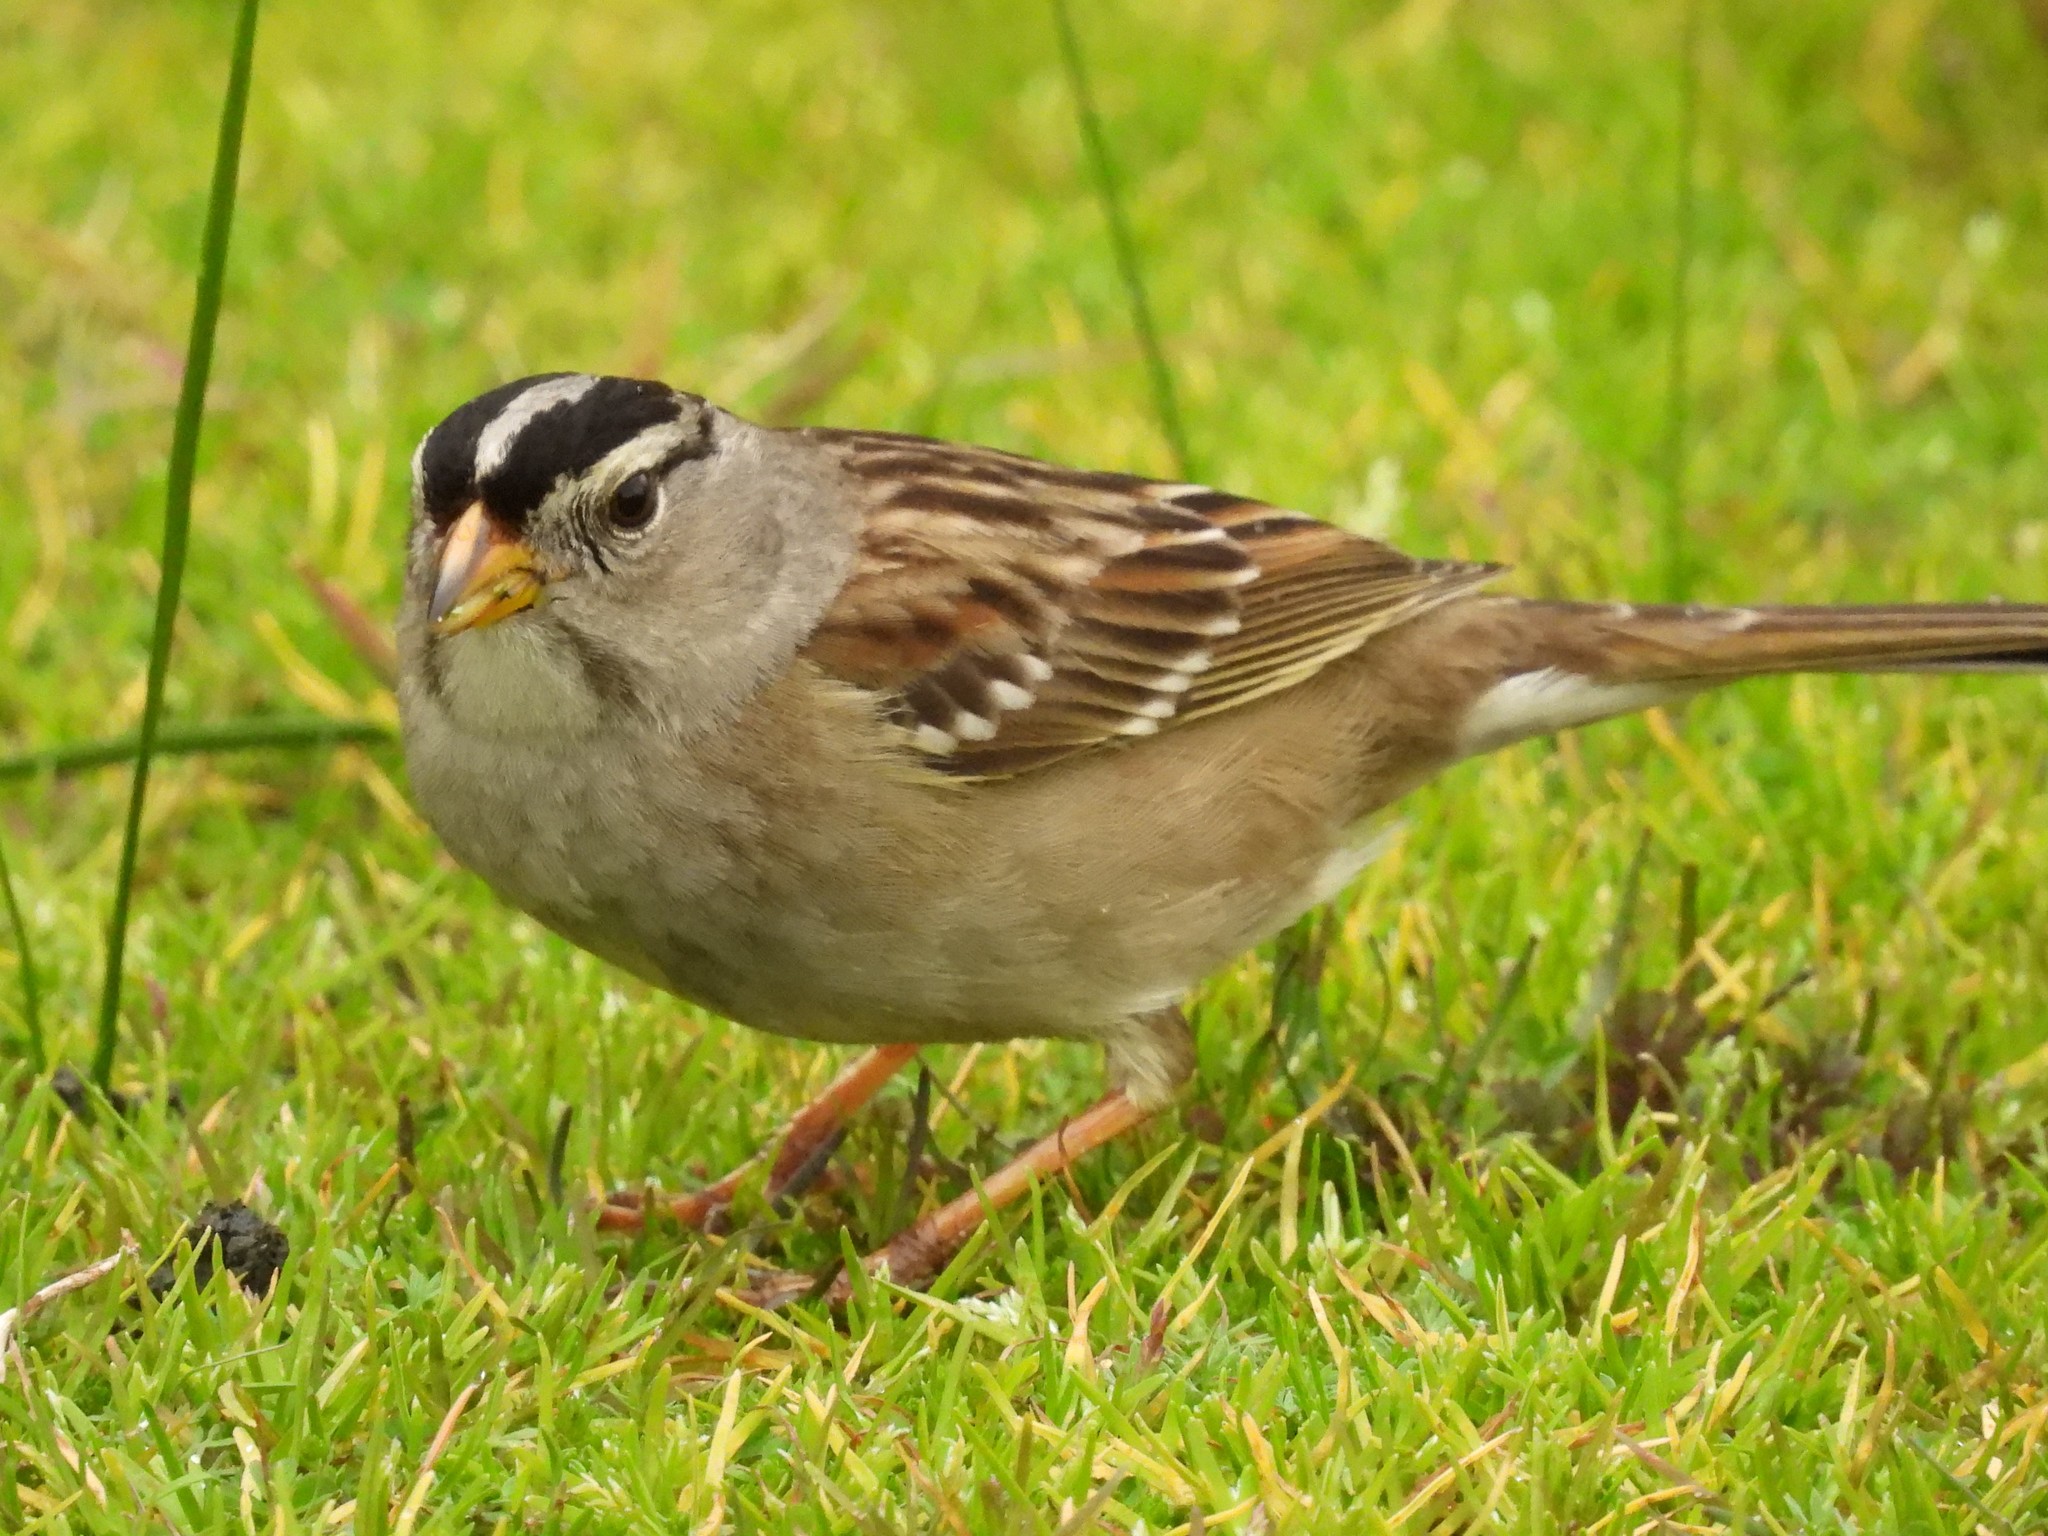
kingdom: Animalia
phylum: Chordata
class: Aves
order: Passeriformes
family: Passerellidae
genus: Zonotrichia
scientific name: Zonotrichia leucophrys
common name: White-crowned sparrow
